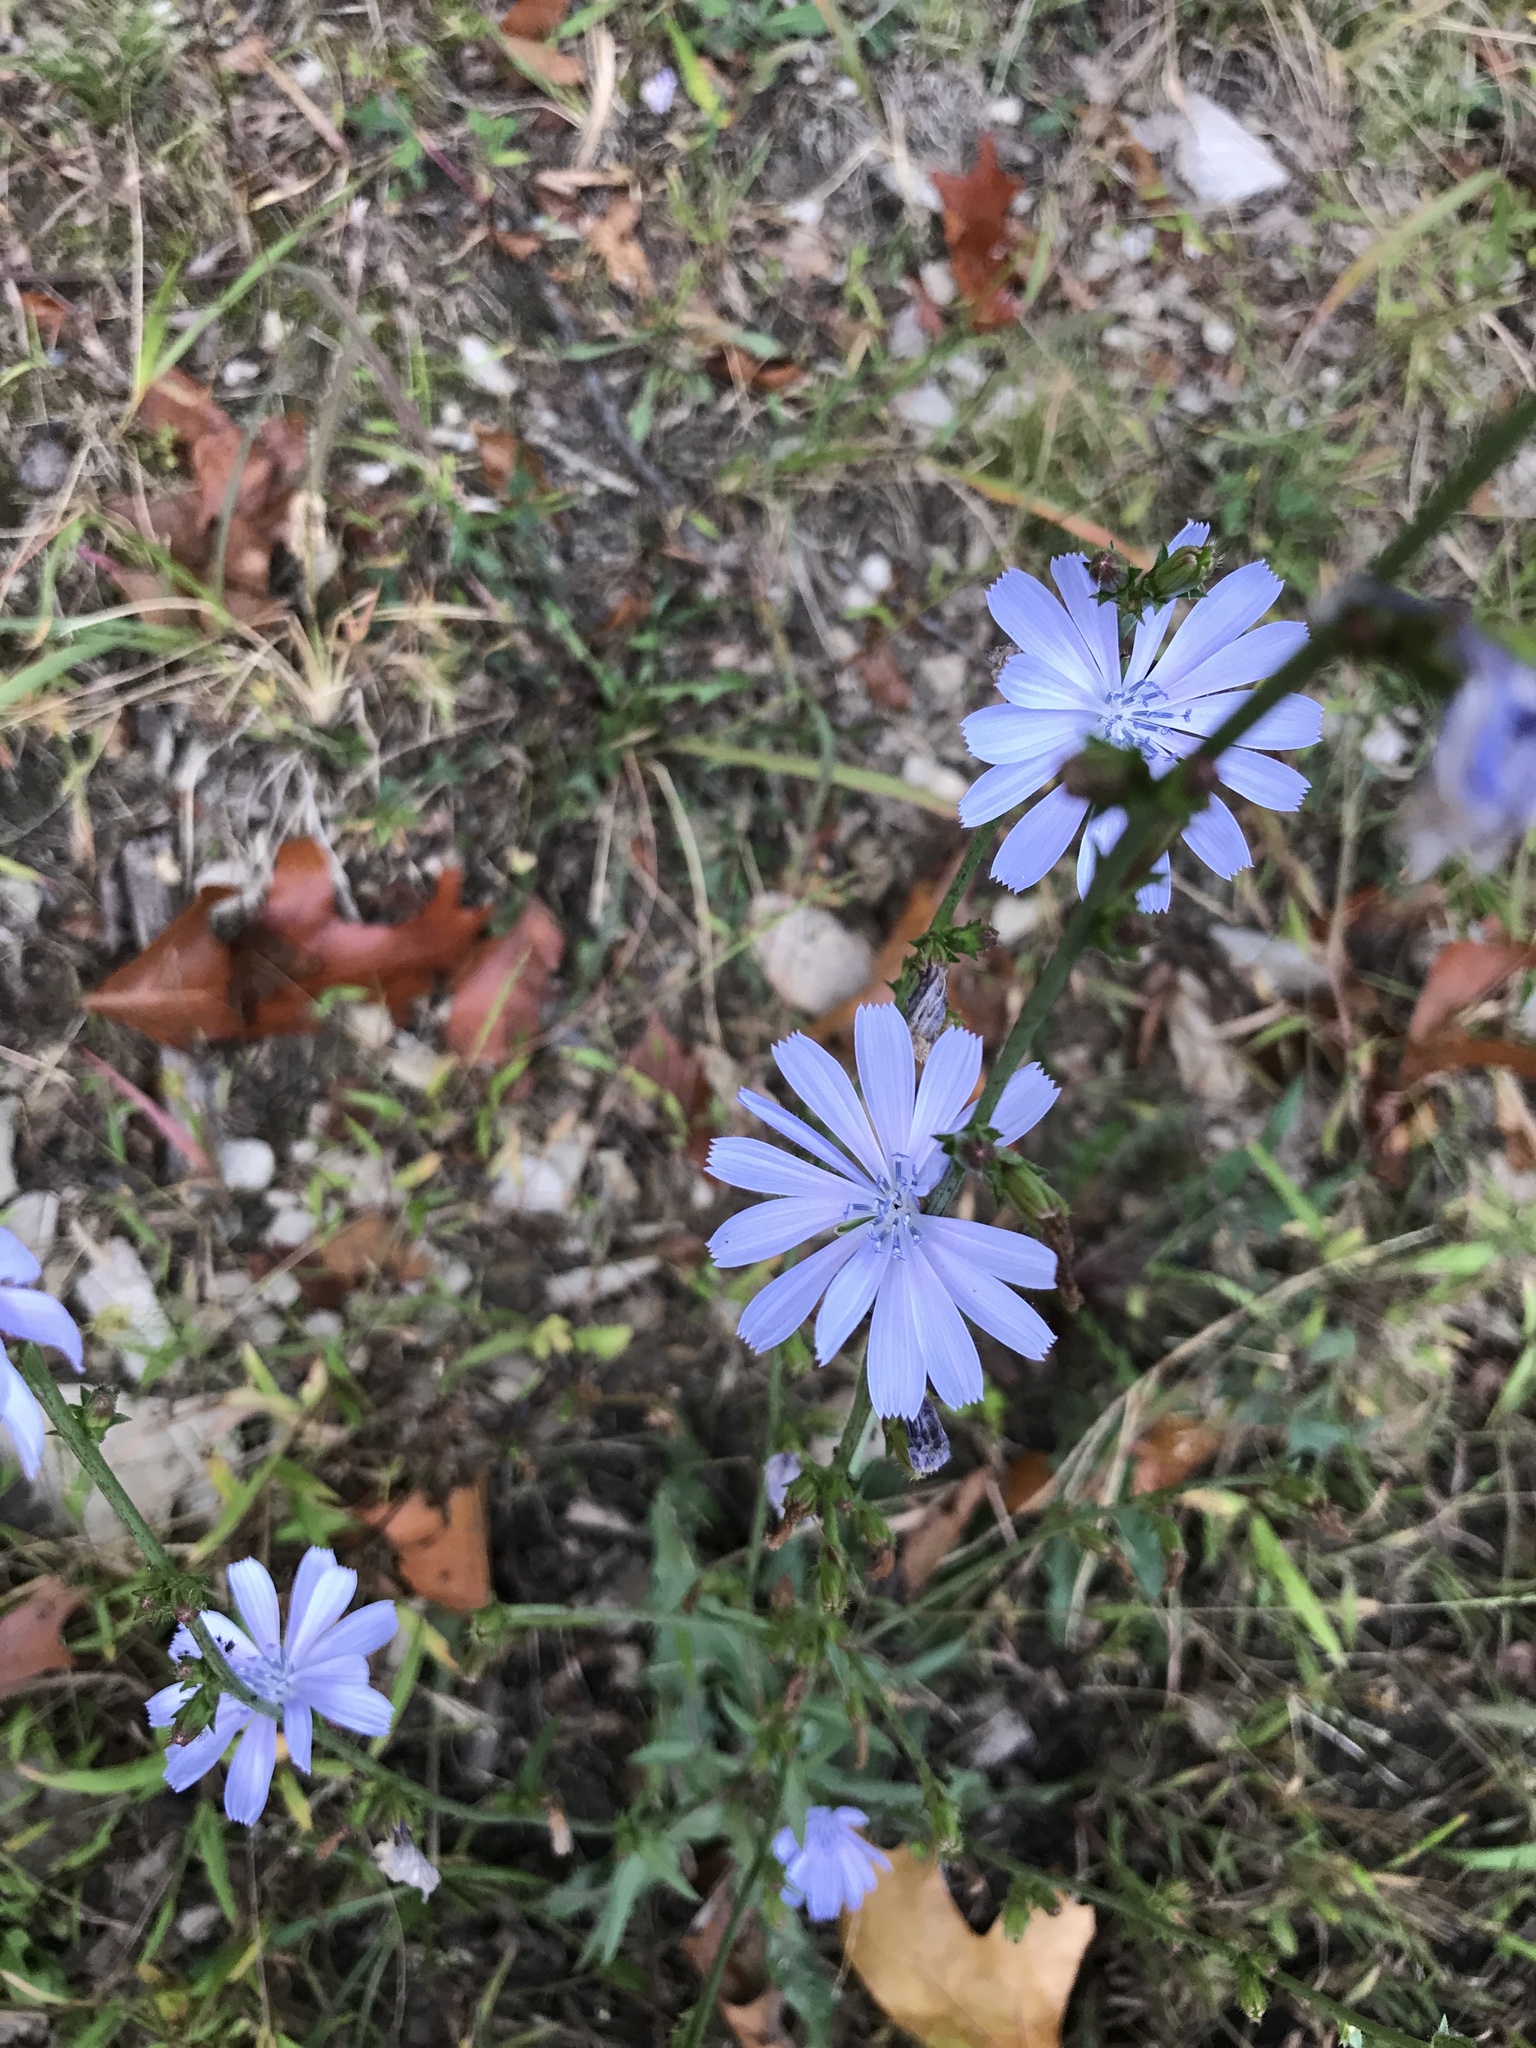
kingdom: Plantae
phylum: Tracheophyta
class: Magnoliopsida
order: Asterales
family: Asteraceae
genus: Cichorium
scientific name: Cichorium intybus
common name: Chicory
